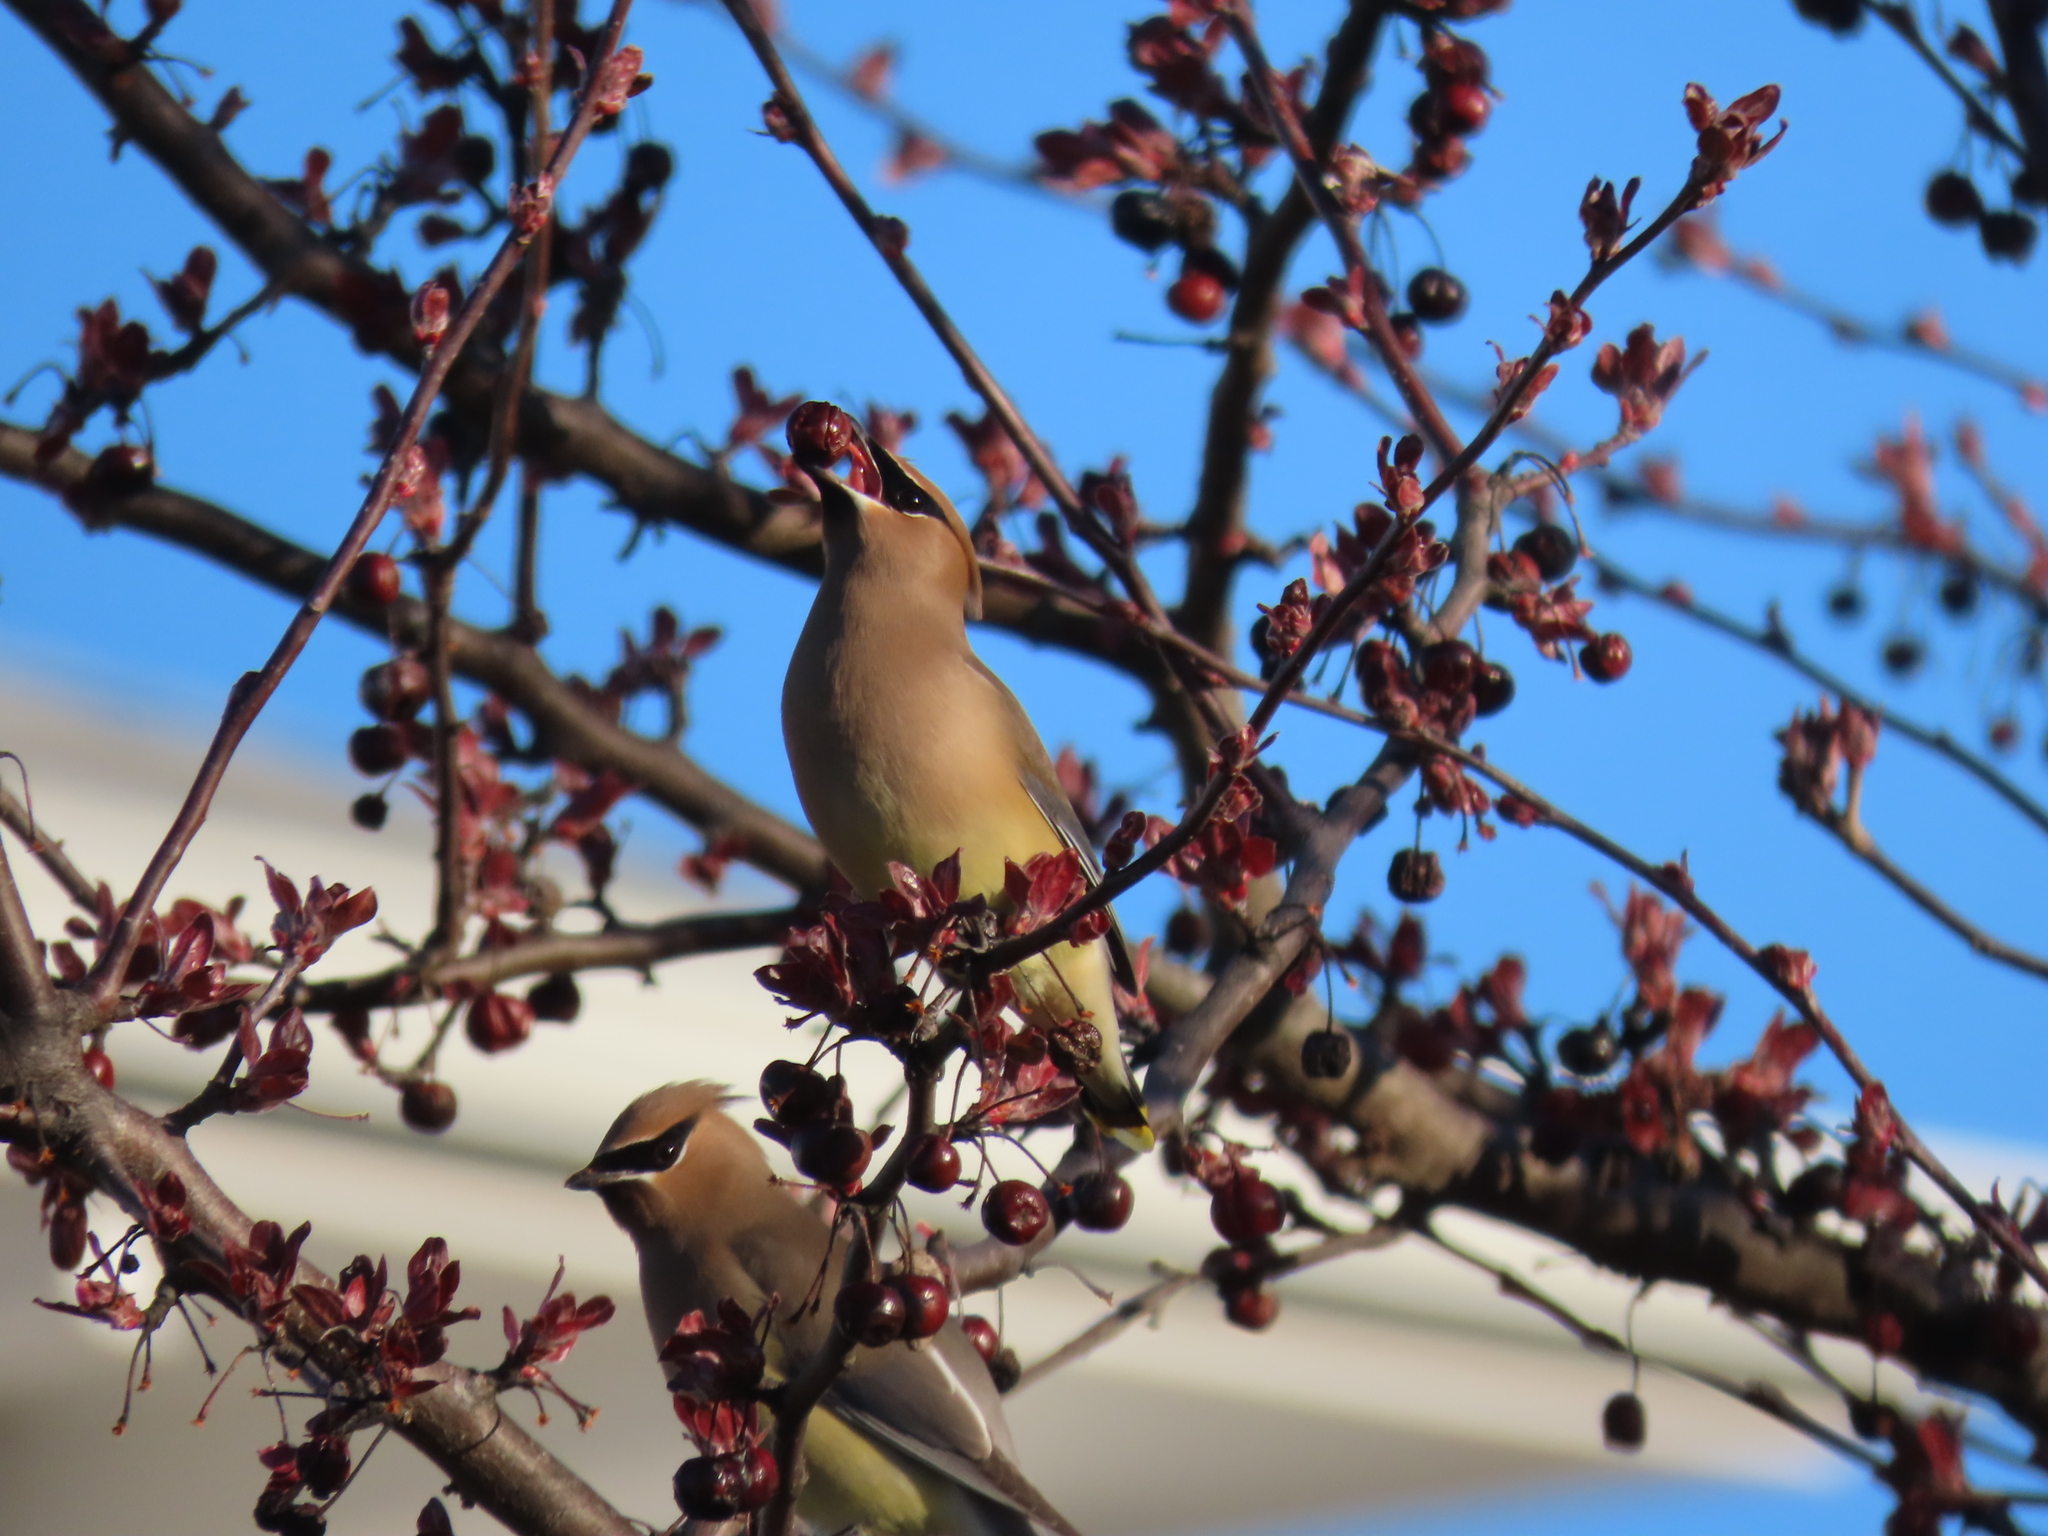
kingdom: Animalia
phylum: Chordata
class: Aves
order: Passeriformes
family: Bombycillidae
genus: Bombycilla
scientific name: Bombycilla cedrorum
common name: Cedar waxwing
